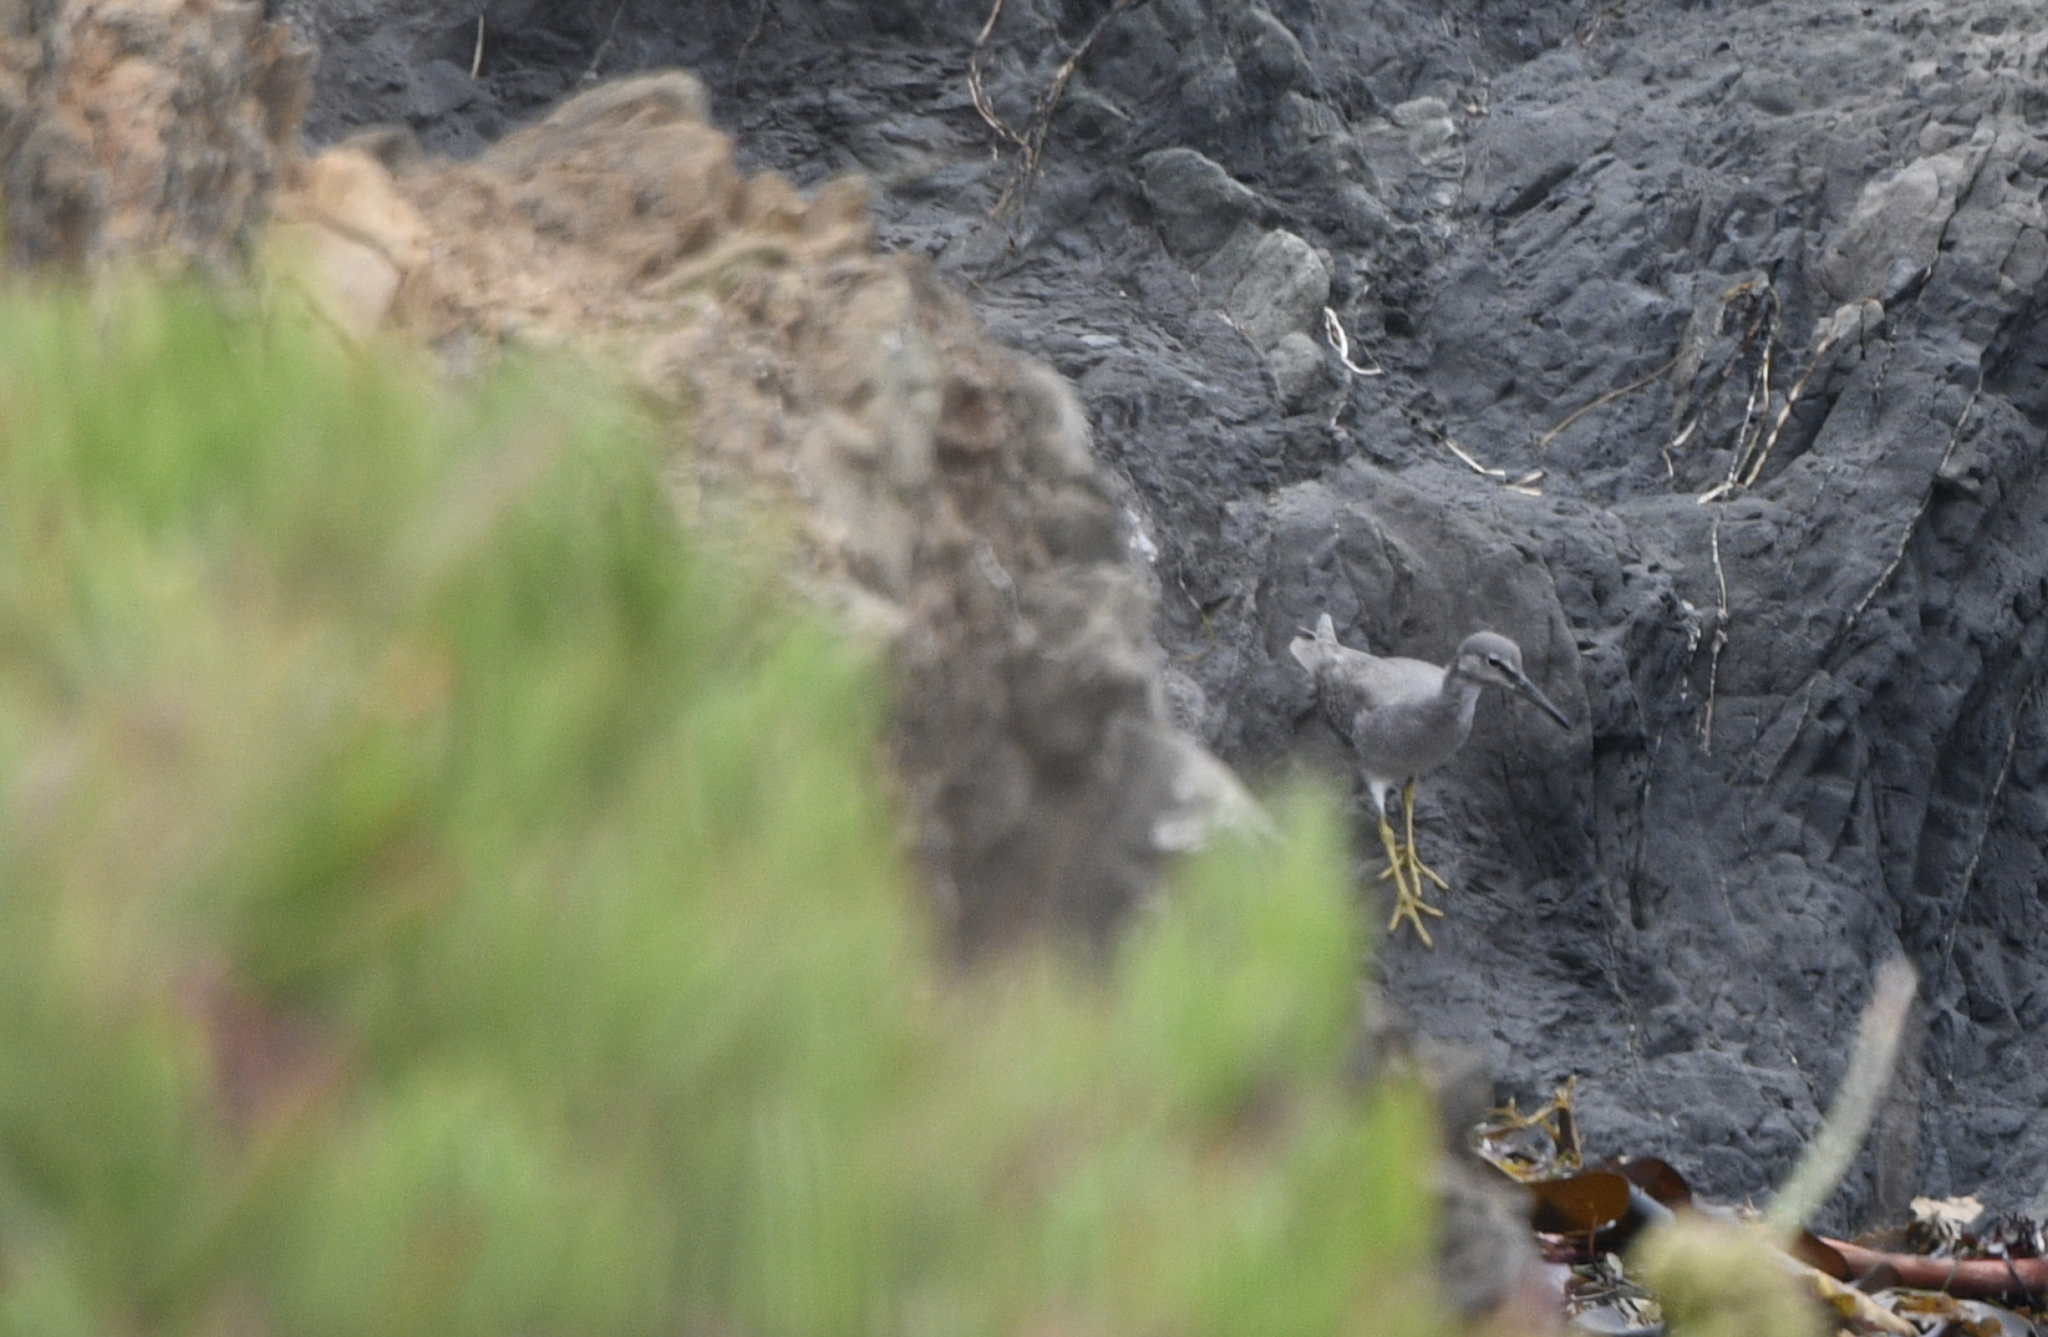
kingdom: Animalia
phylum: Chordata
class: Aves
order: Charadriiformes
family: Scolopacidae
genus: Tringa
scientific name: Tringa incana
